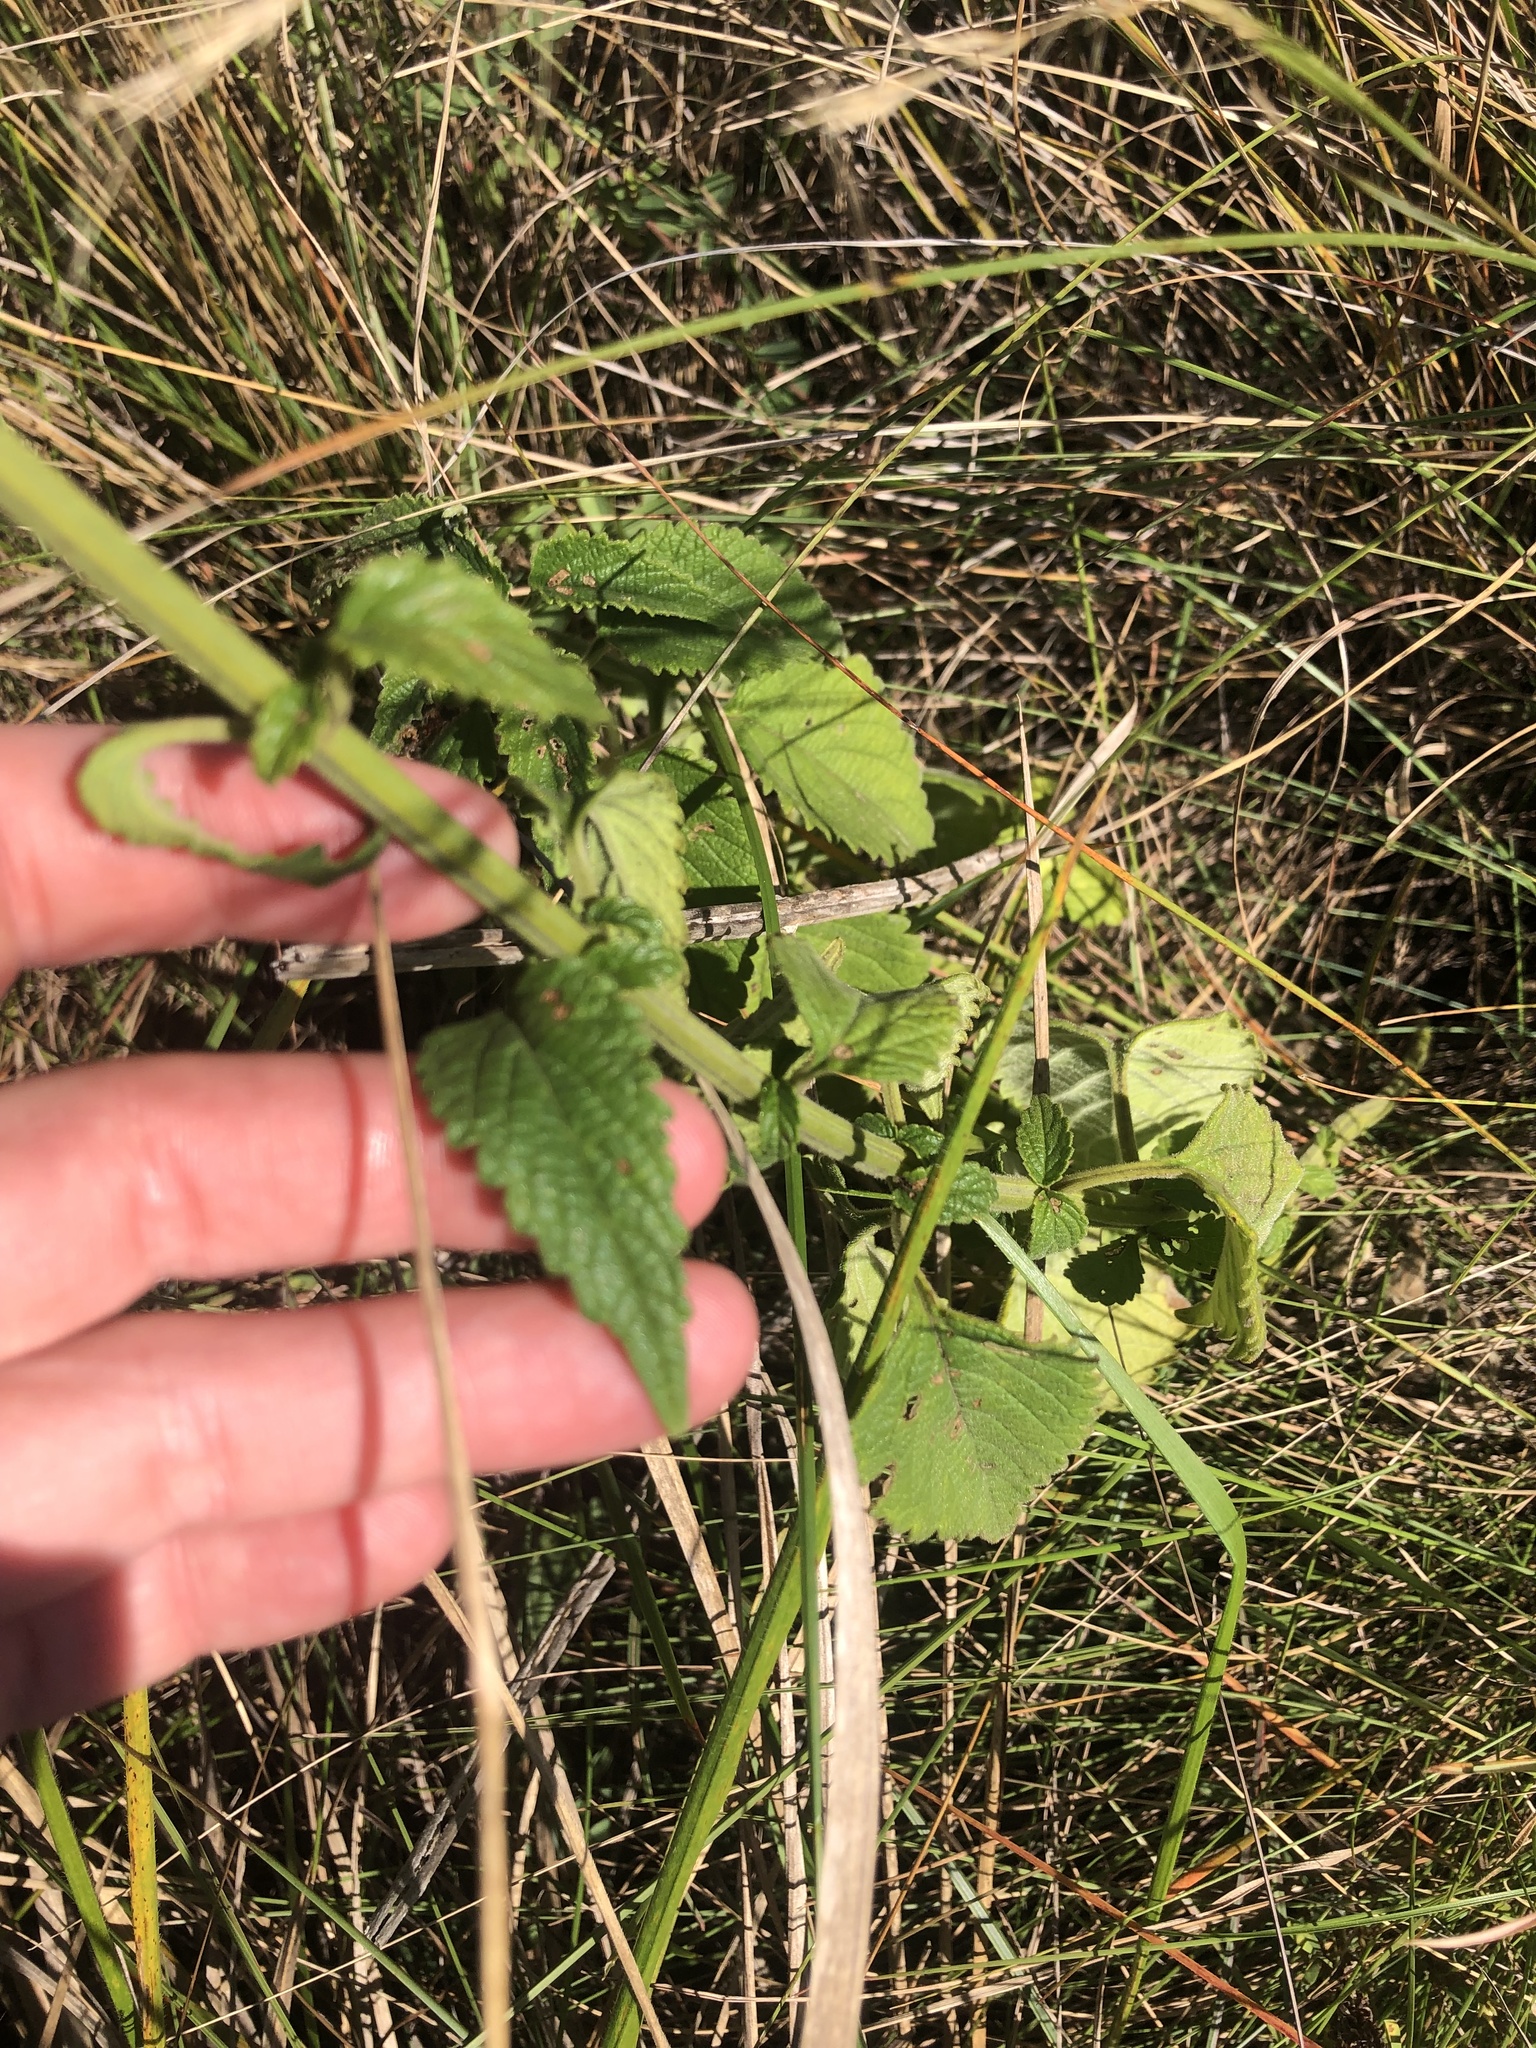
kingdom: Plantae
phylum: Tracheophyta
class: Magnoliopsida
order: Lamiales
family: Lamiaceae
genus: Leonotis
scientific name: Leonotis ocymifolia
